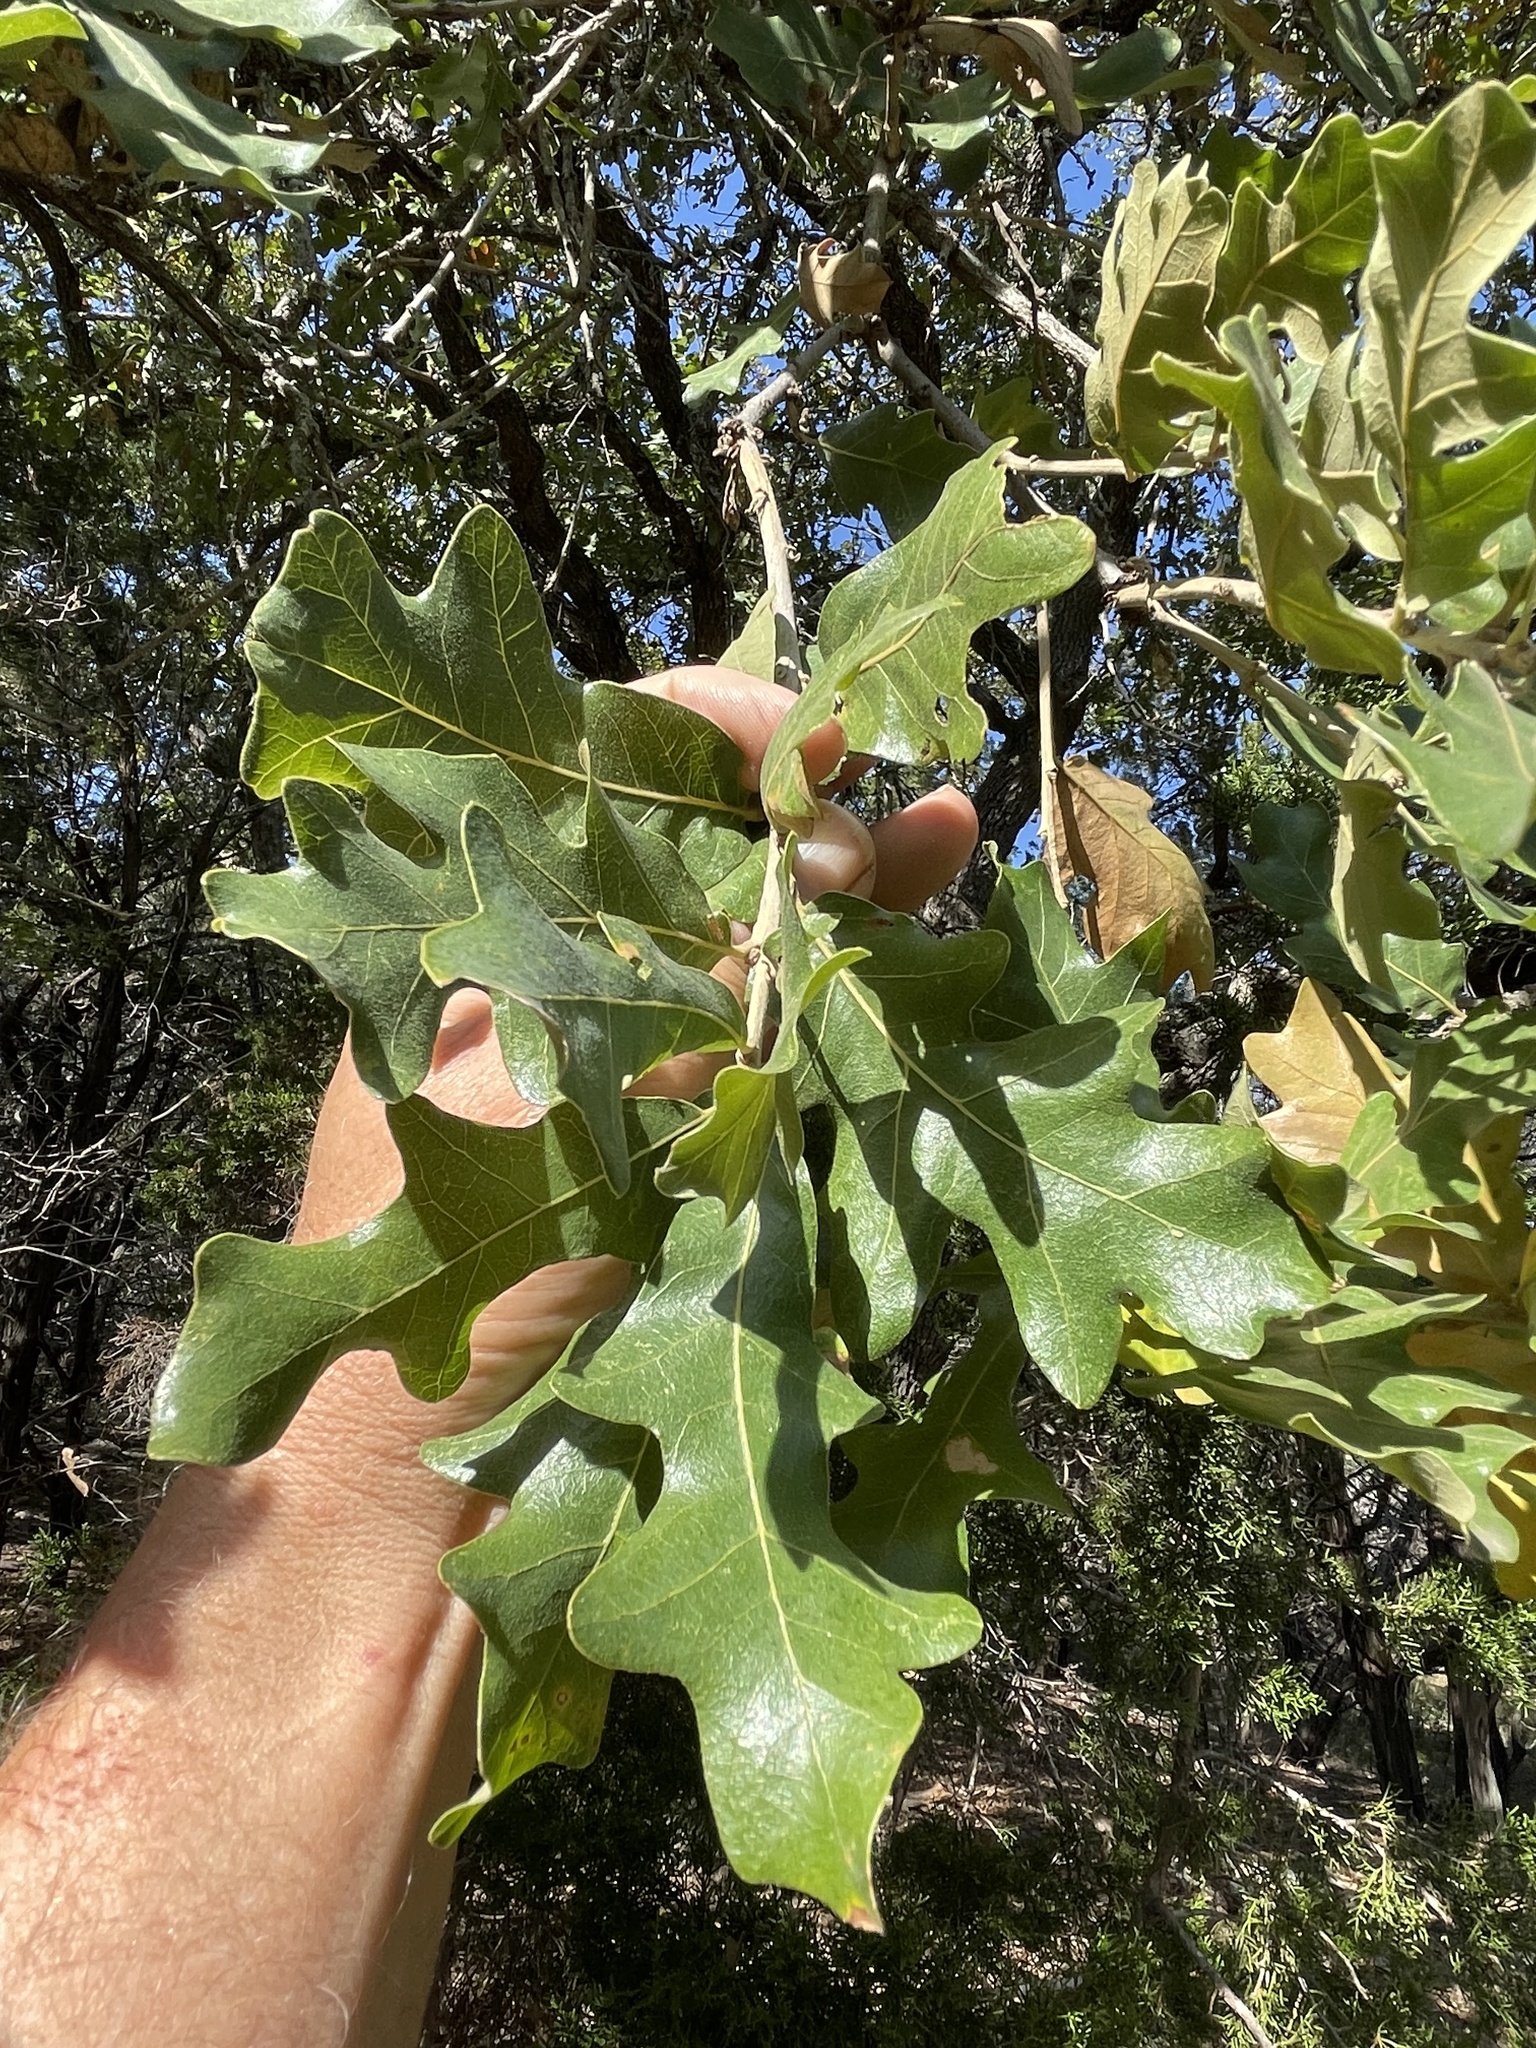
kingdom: Plantae
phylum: Tracheophyta
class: Magnoliopsida
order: Fagales
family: Fagaceae
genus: Quercus
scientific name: Quercus stellata
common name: Post oak
